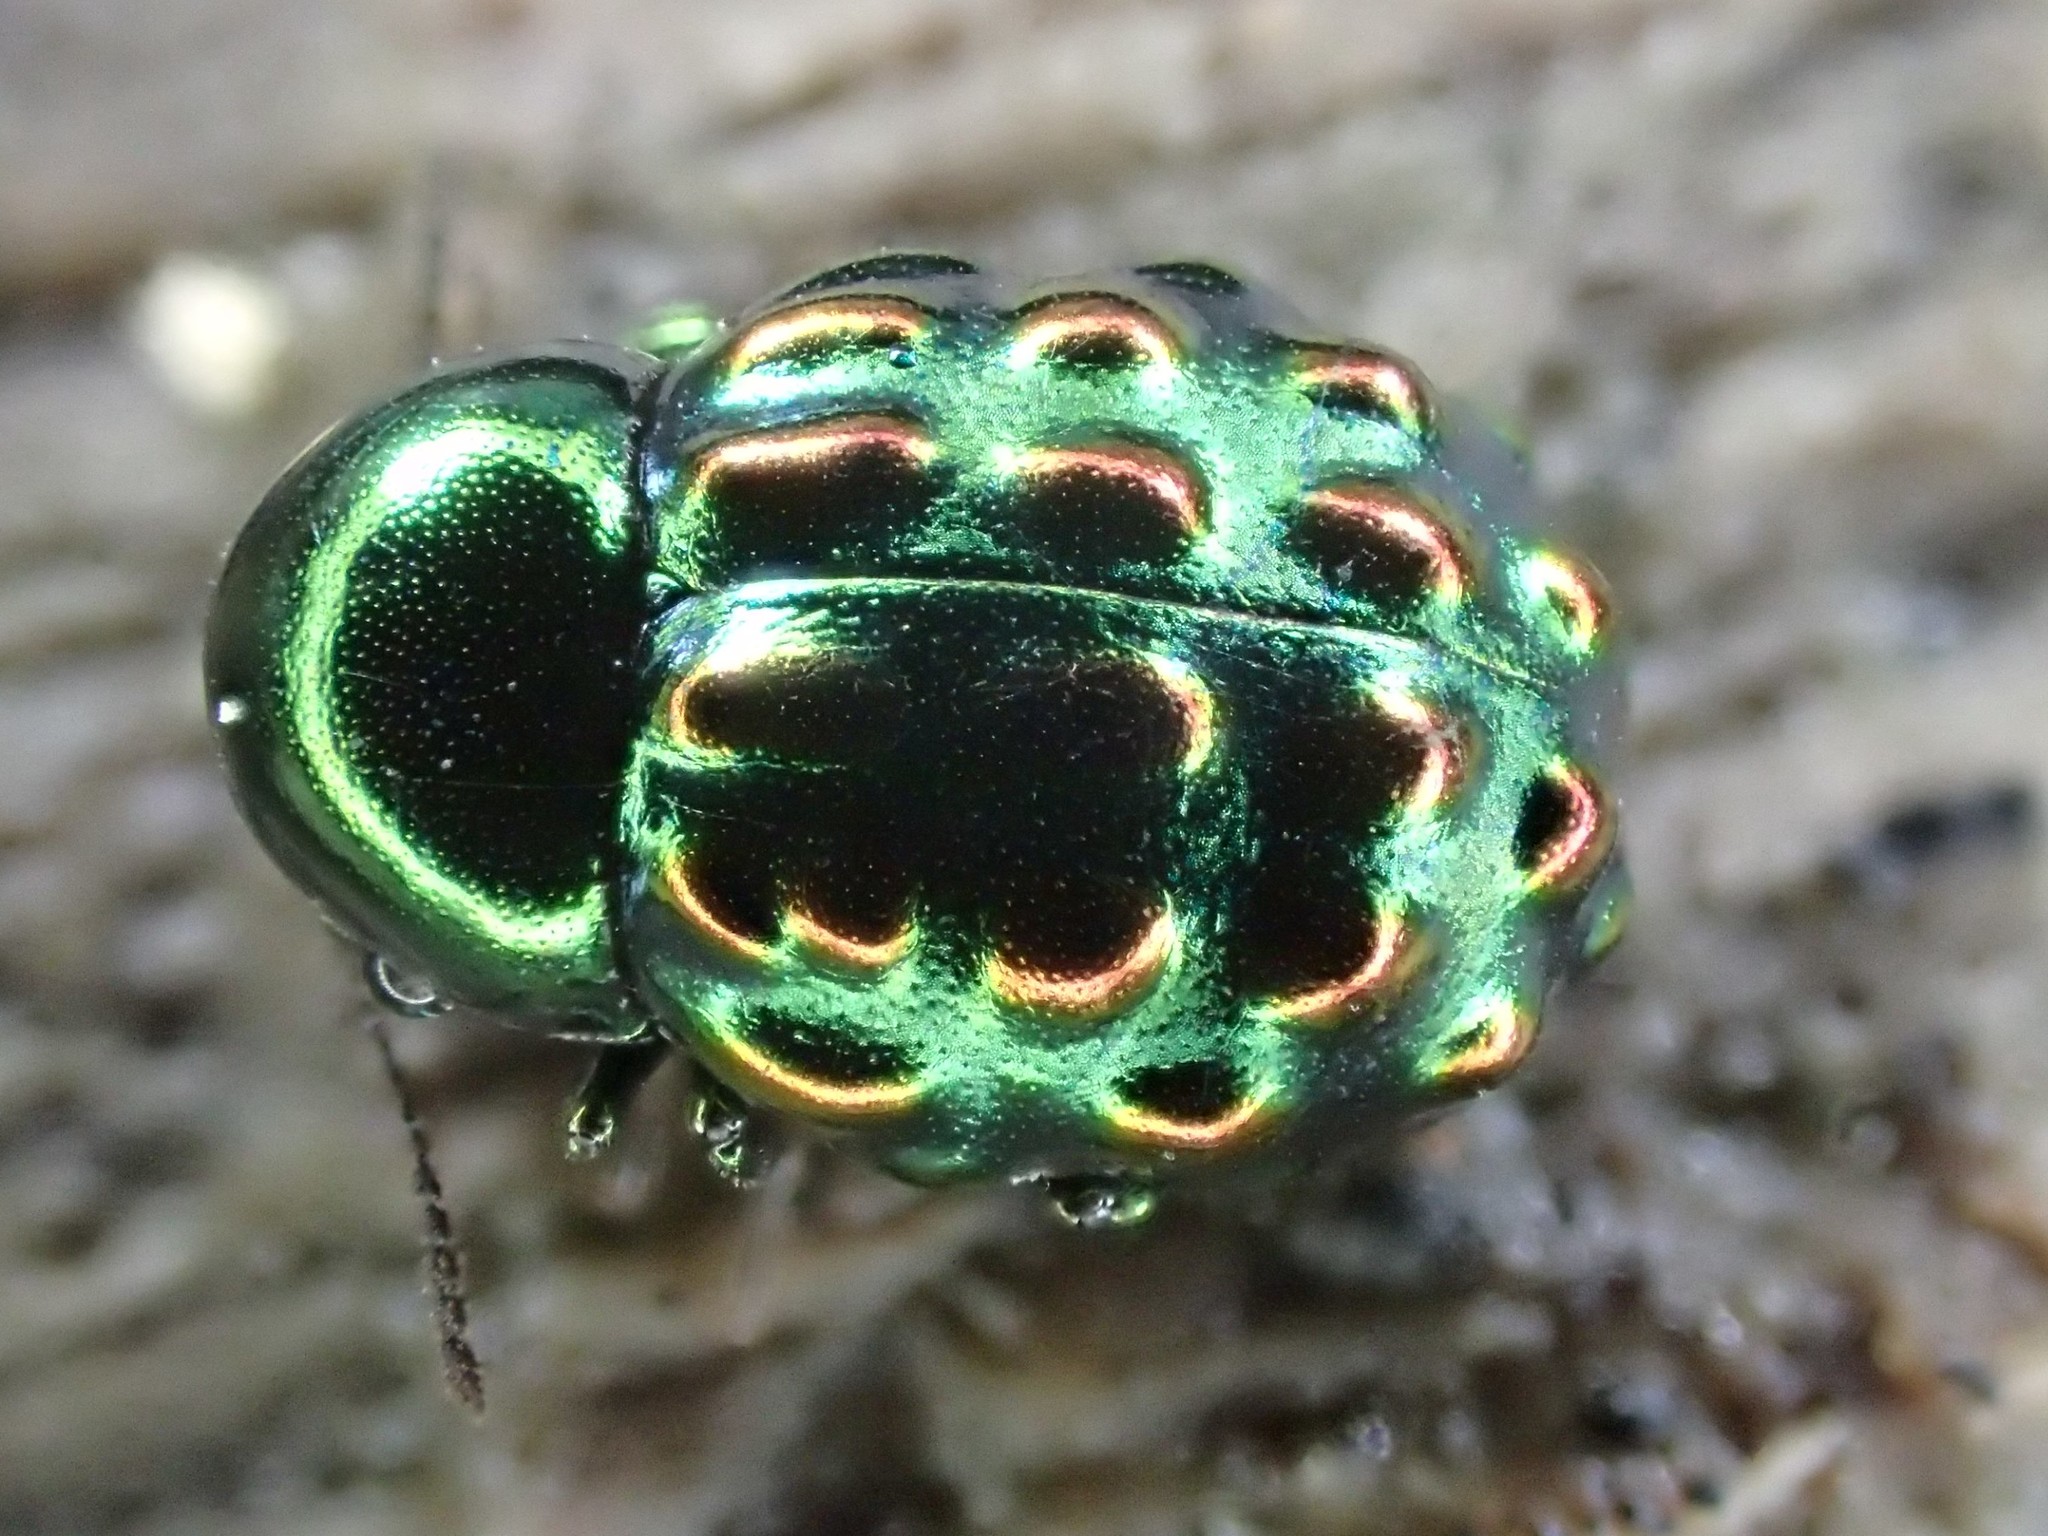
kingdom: Animalia
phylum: Arthropoda
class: Insecta
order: Coleoptera
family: Byrrhidae
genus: Notolioon
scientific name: Notolioon
